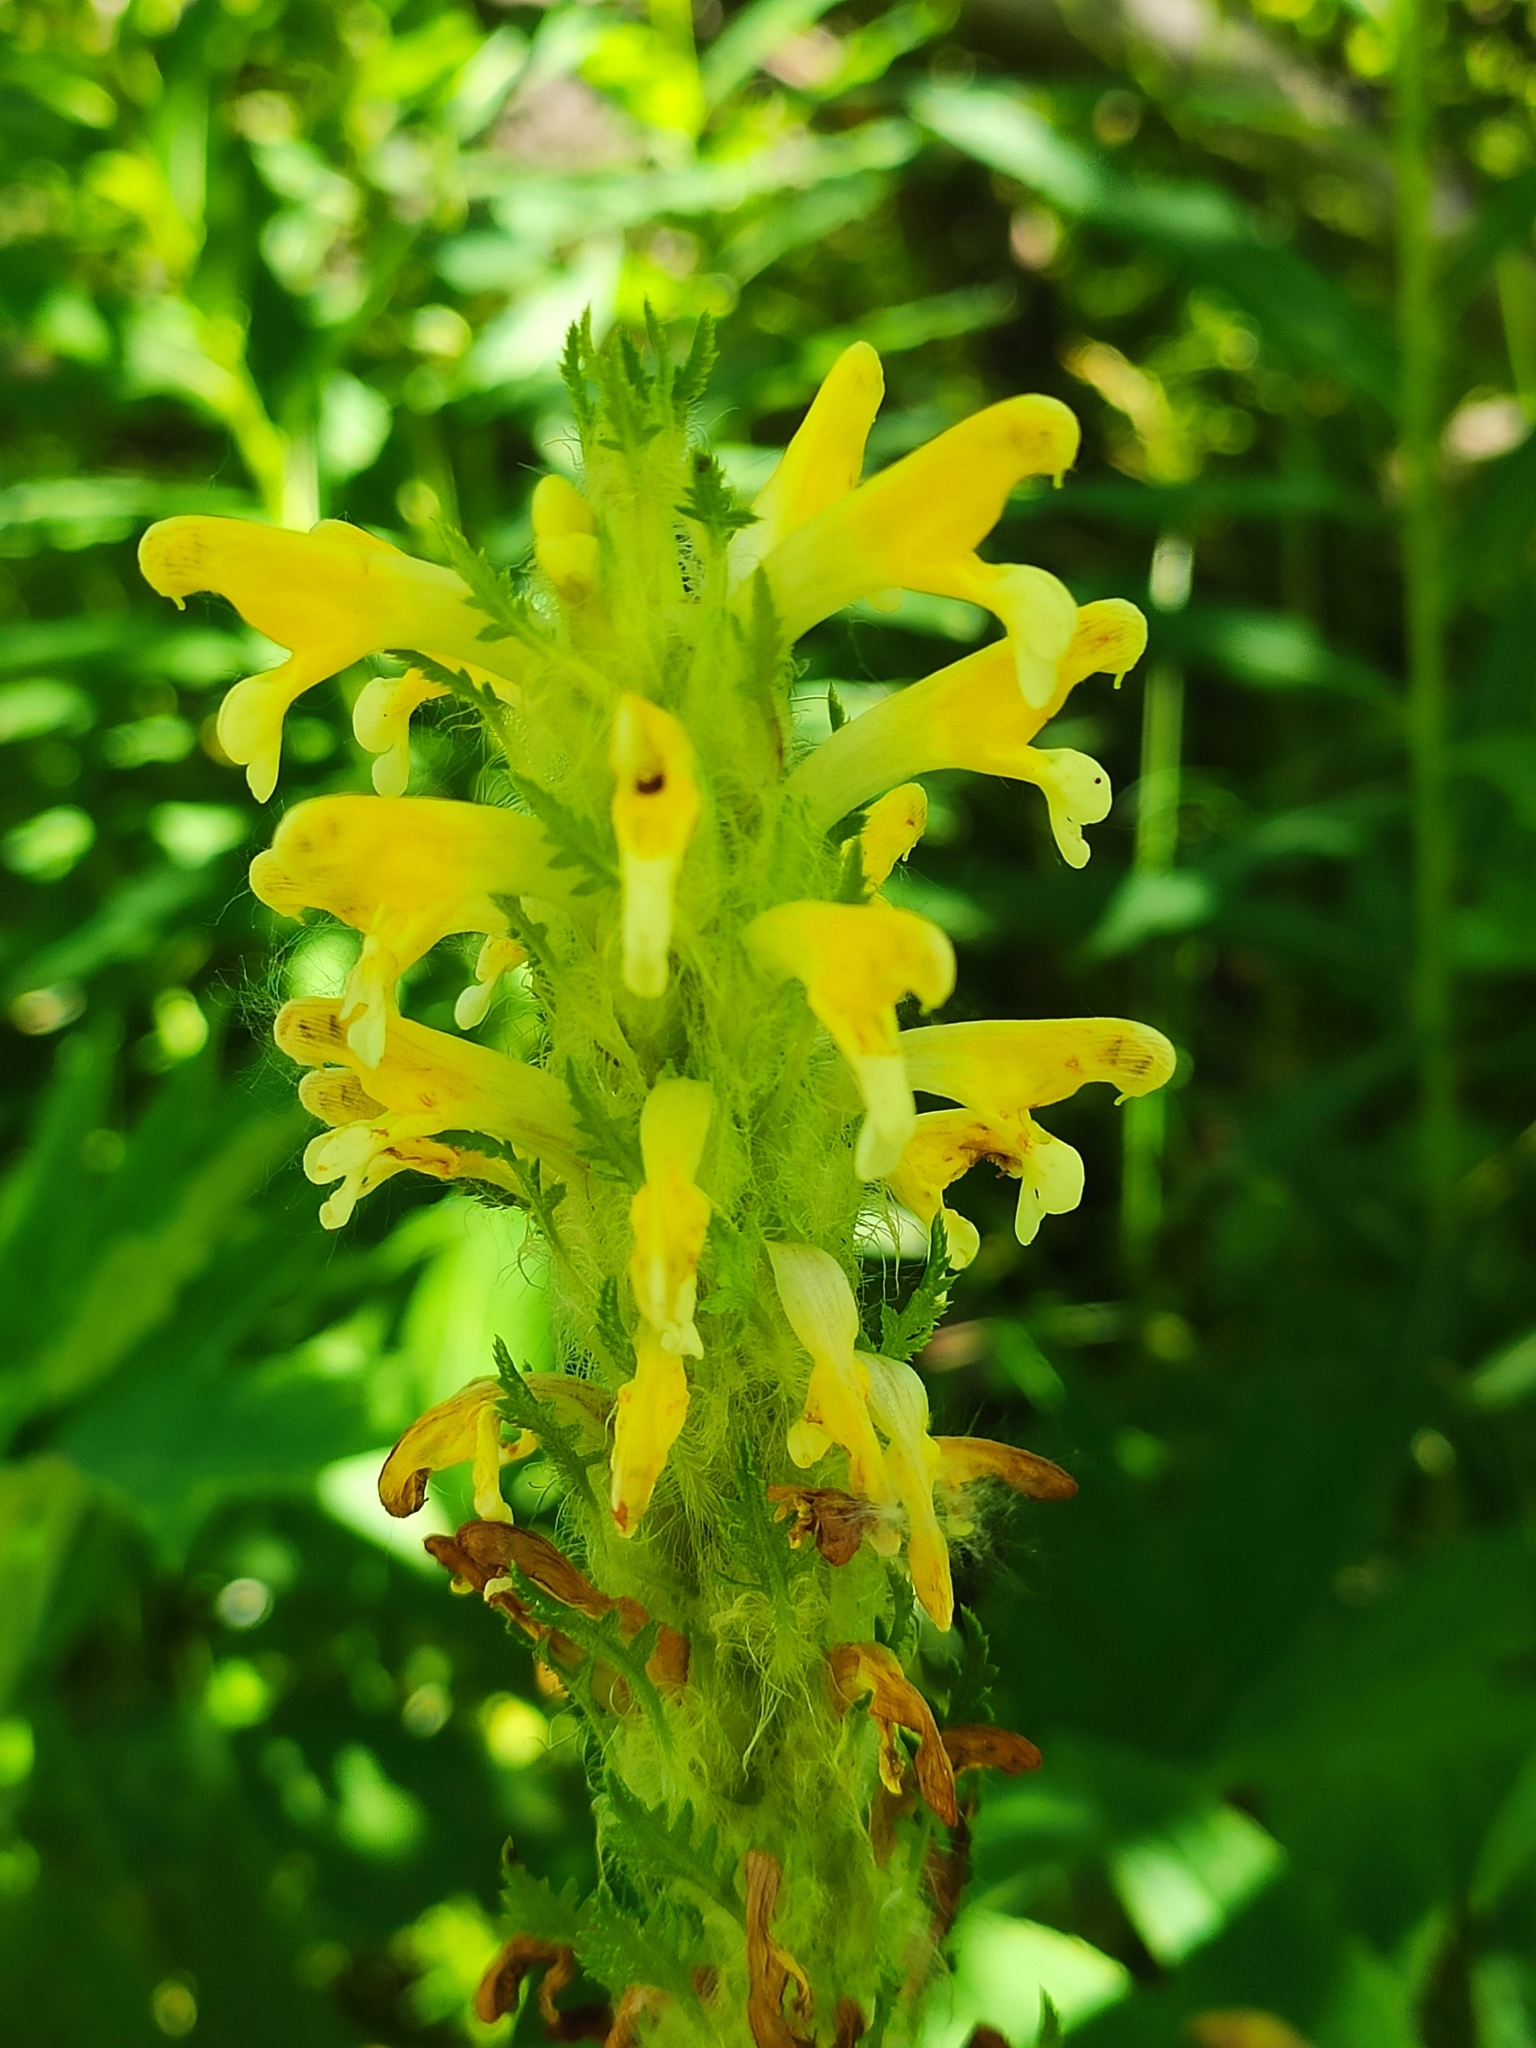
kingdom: Plantae
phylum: Tracheophyta
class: Magnoliopsida
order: Lamiales
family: Orobanchaceae
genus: Pedicularis
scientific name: Pedicularis condensata
